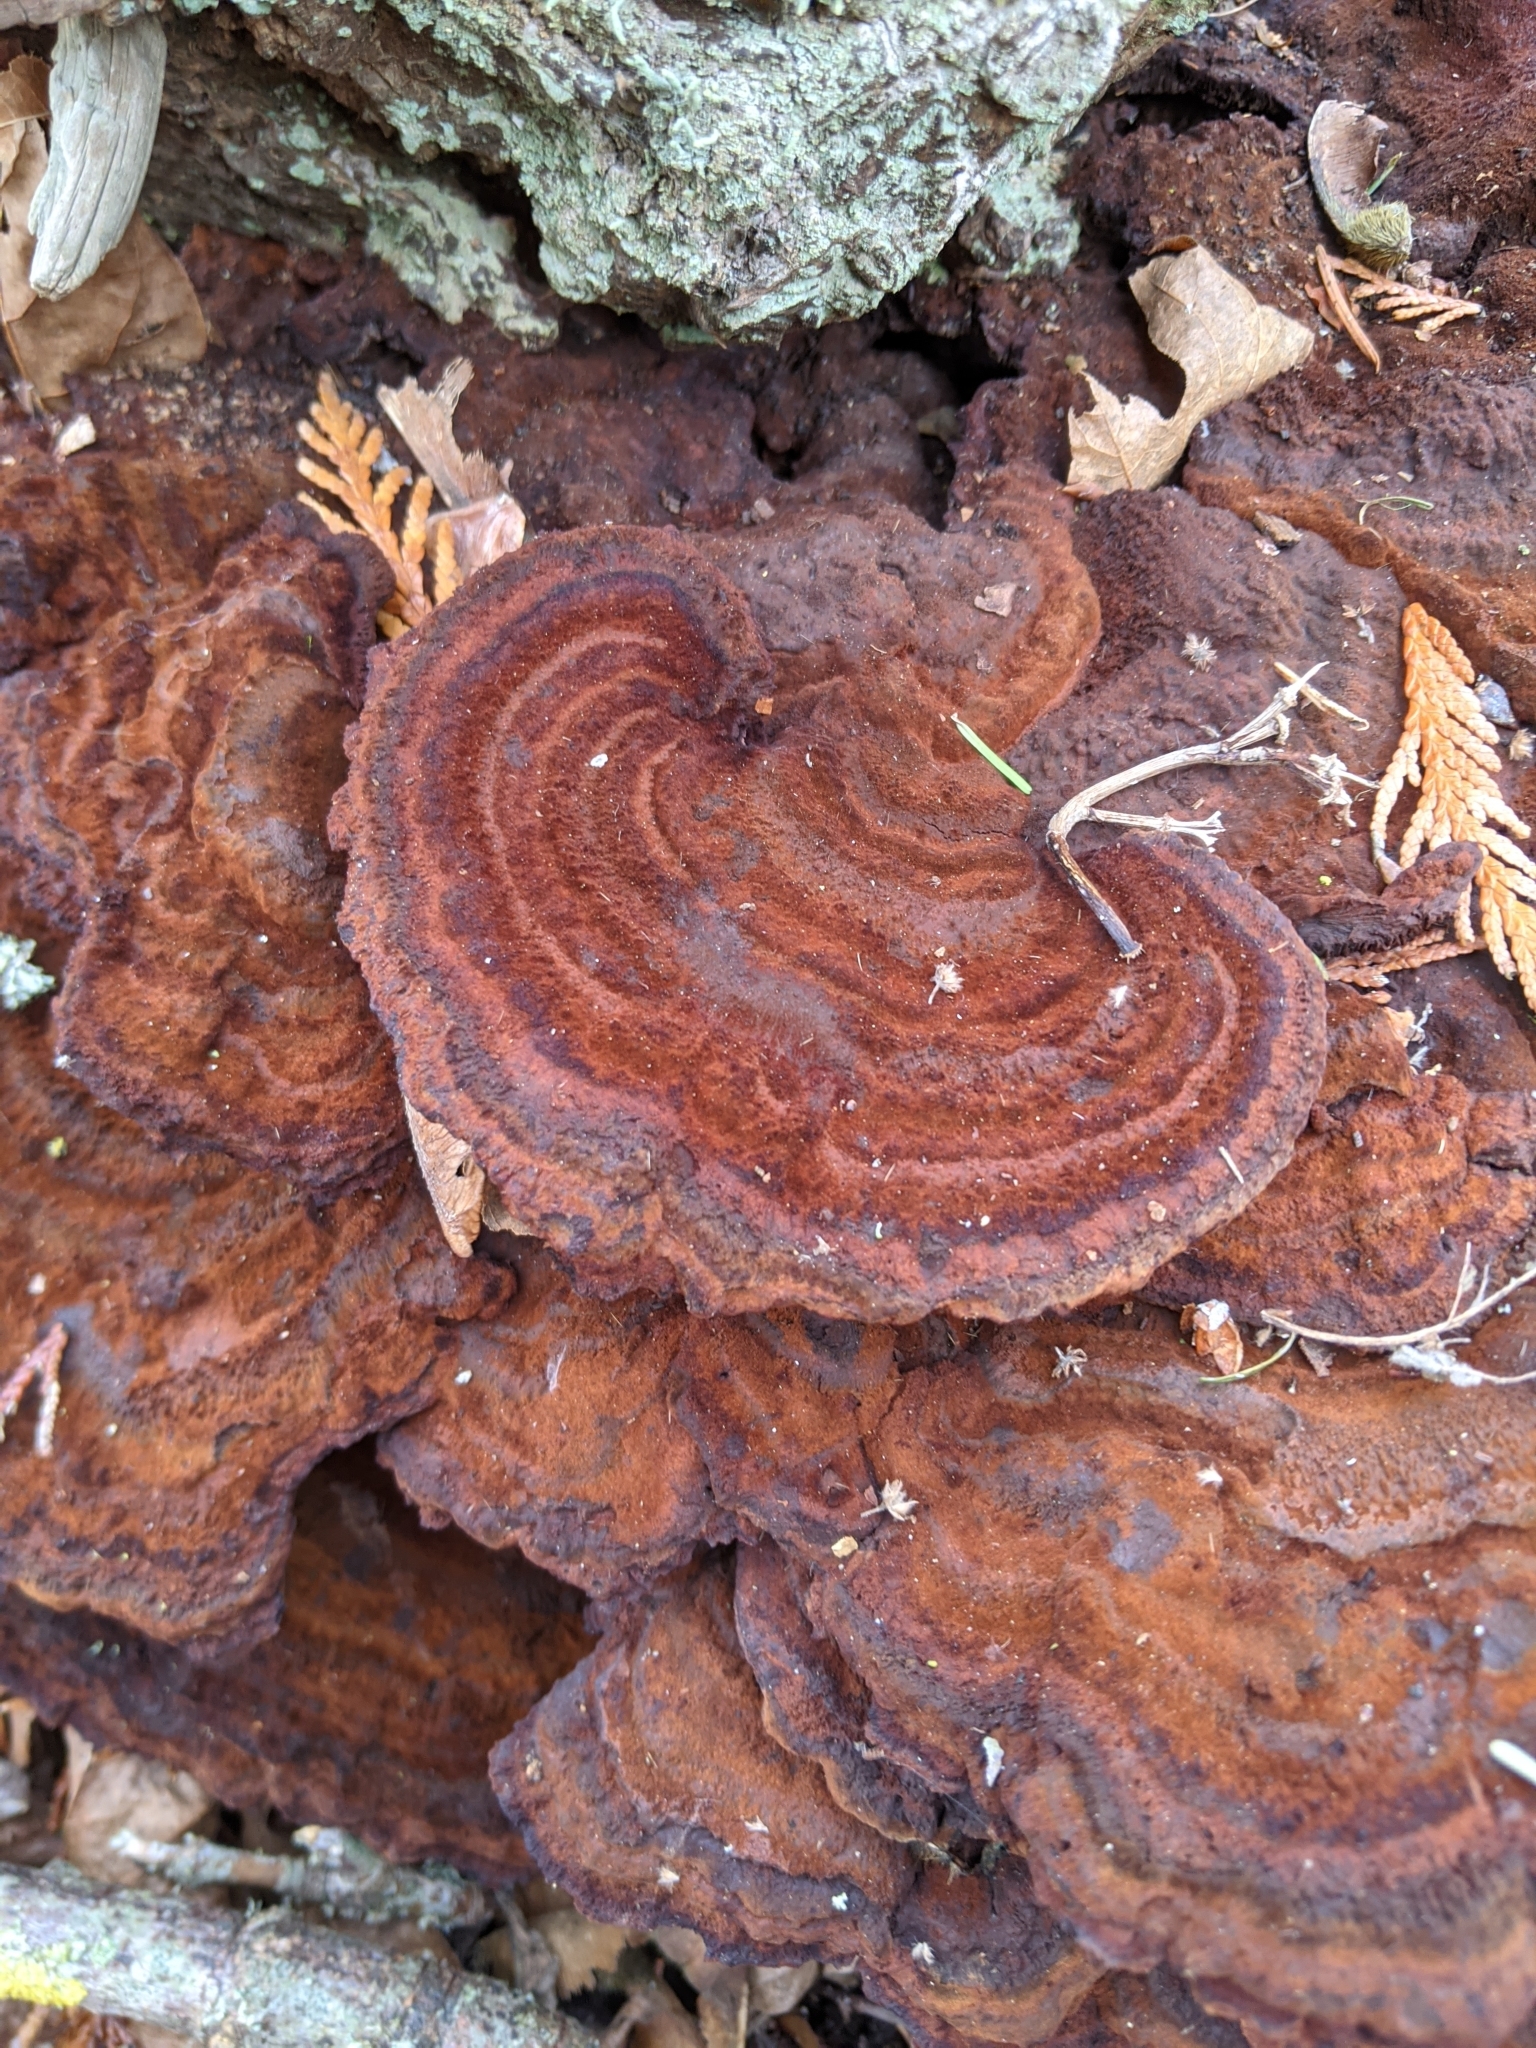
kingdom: Fungi
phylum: Basidiomycota
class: Agaricomycetes
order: Polyporales
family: Laetiporaceae
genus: Phaeolus
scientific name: Phaeolus schweinitzii
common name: Dyer's mazegill
